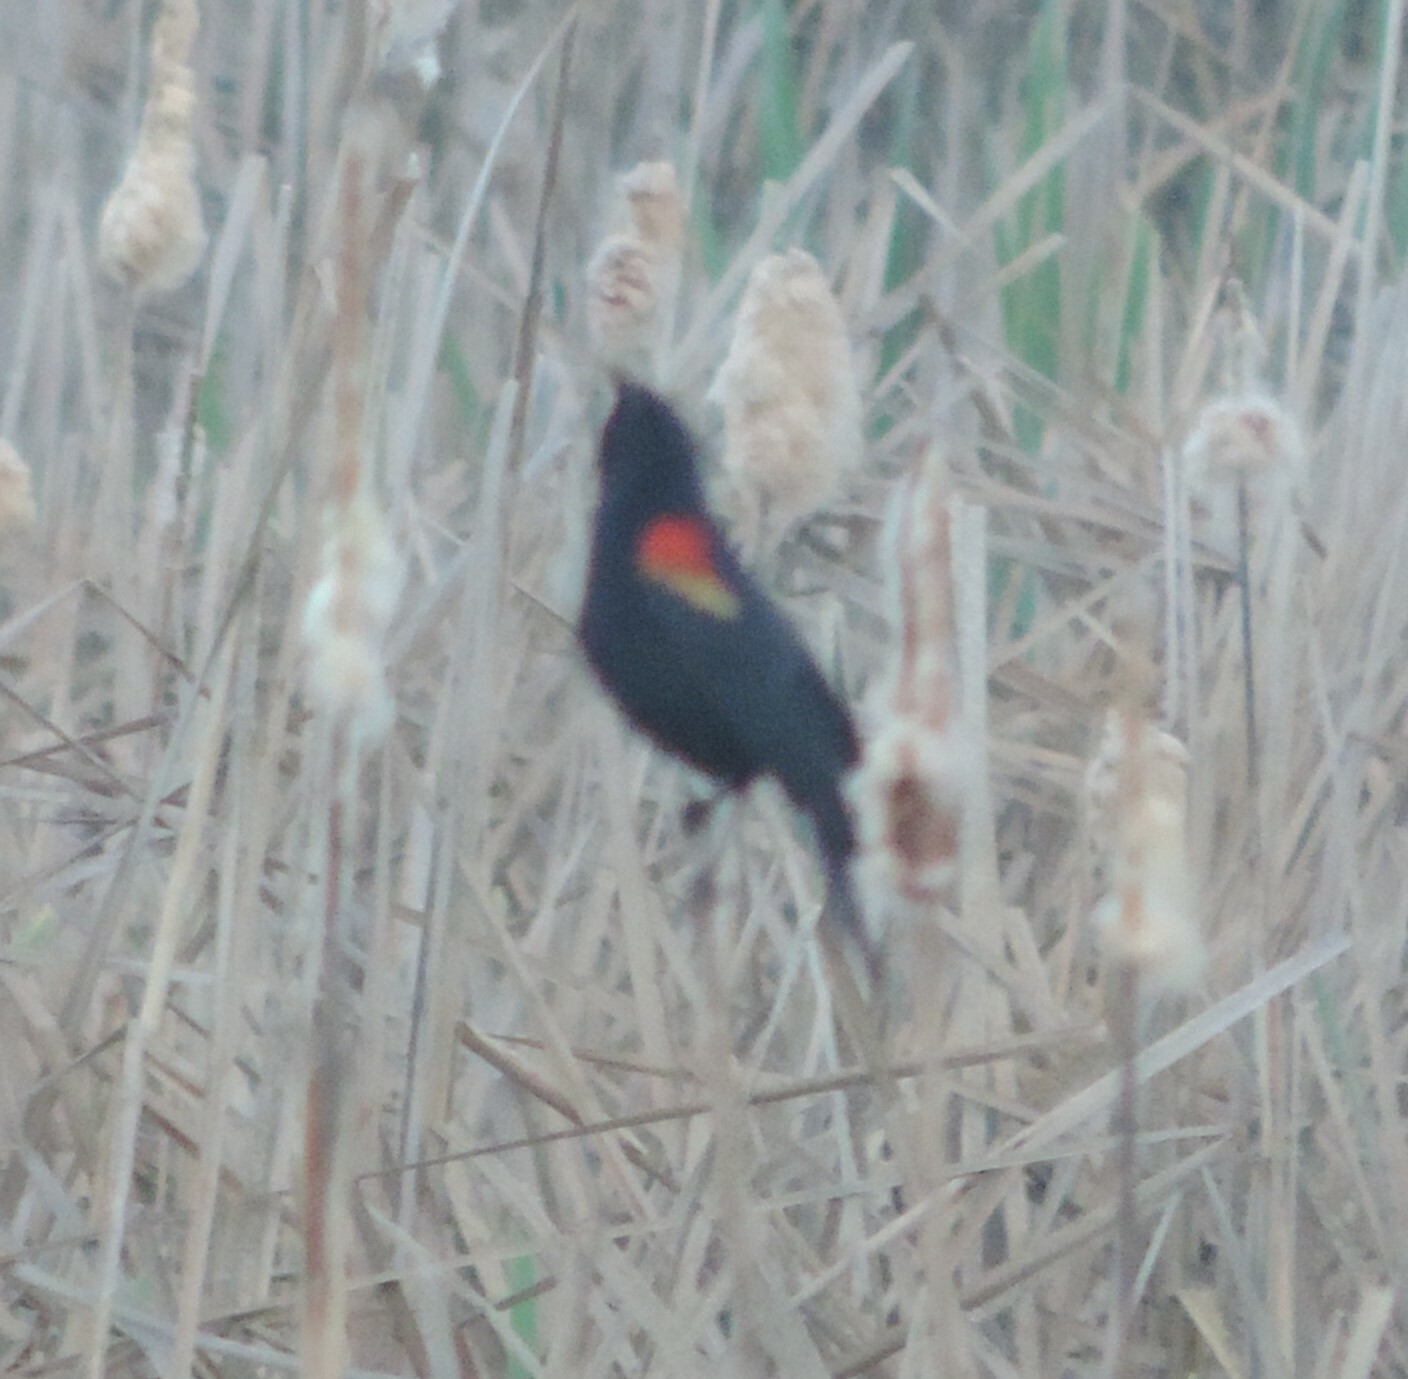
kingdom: Animalia
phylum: Chordata
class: Aves
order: Passeriformes
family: Icteridae
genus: Agelaius
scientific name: Agelaius phoeniceus
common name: Red-winged blackbird
